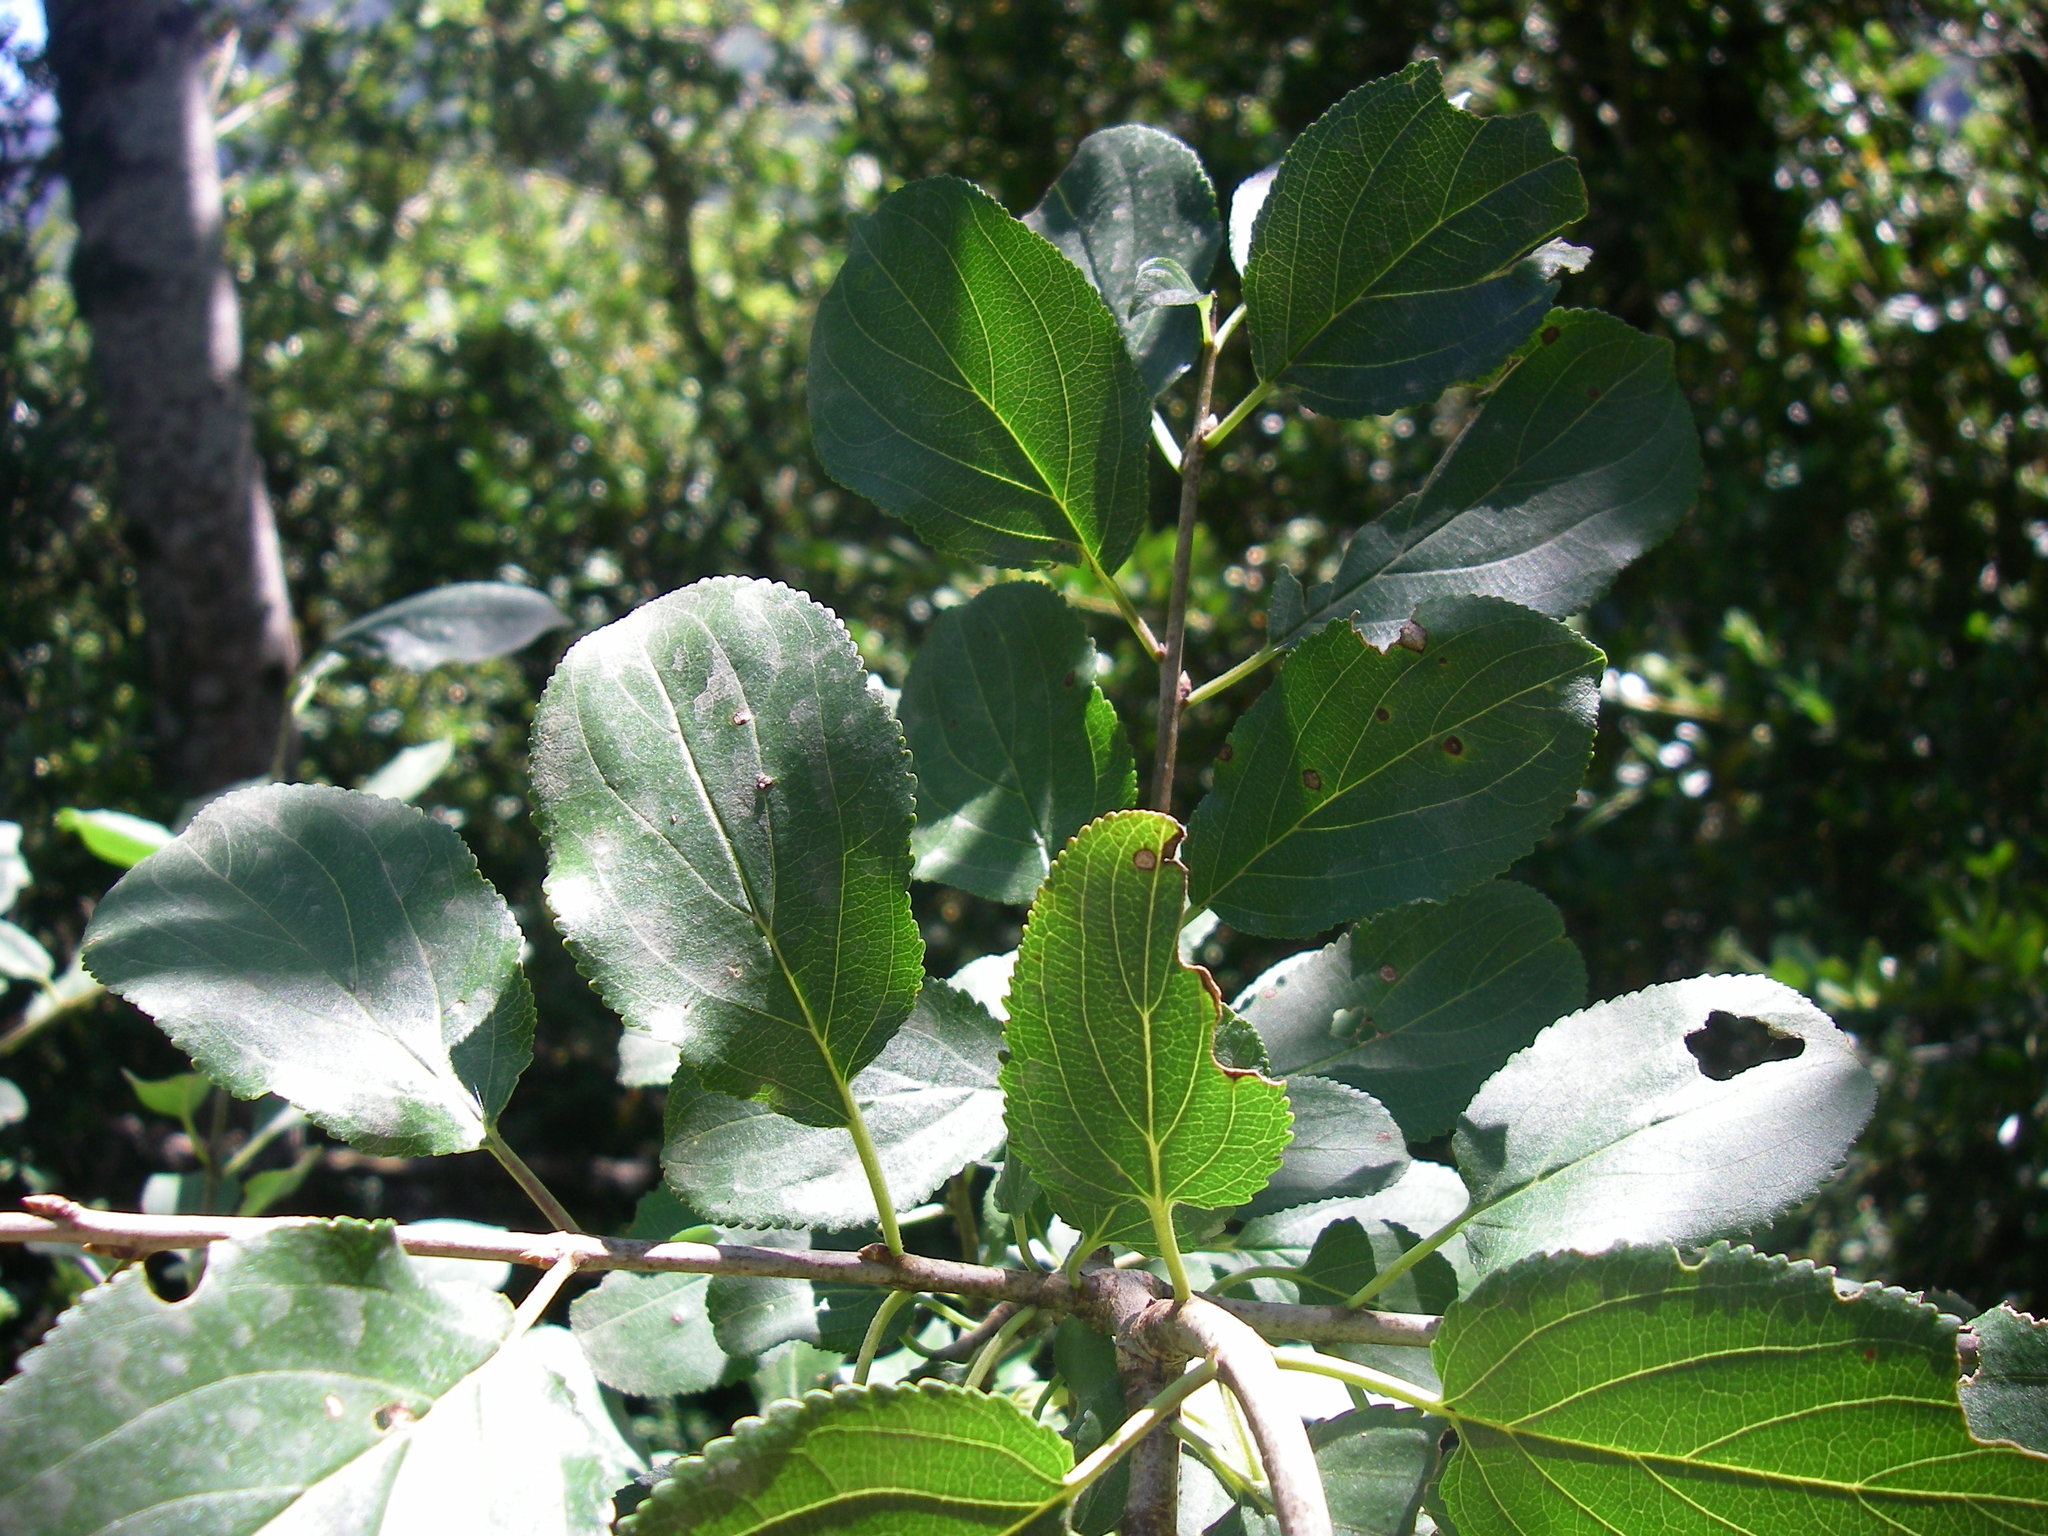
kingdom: Plantae
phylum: Tracheophyta
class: Magnoliopsida
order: Rosales
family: Rhamnaceae
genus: Rhamnus
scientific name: Rhamnus cathartica
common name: Common buckthorn
